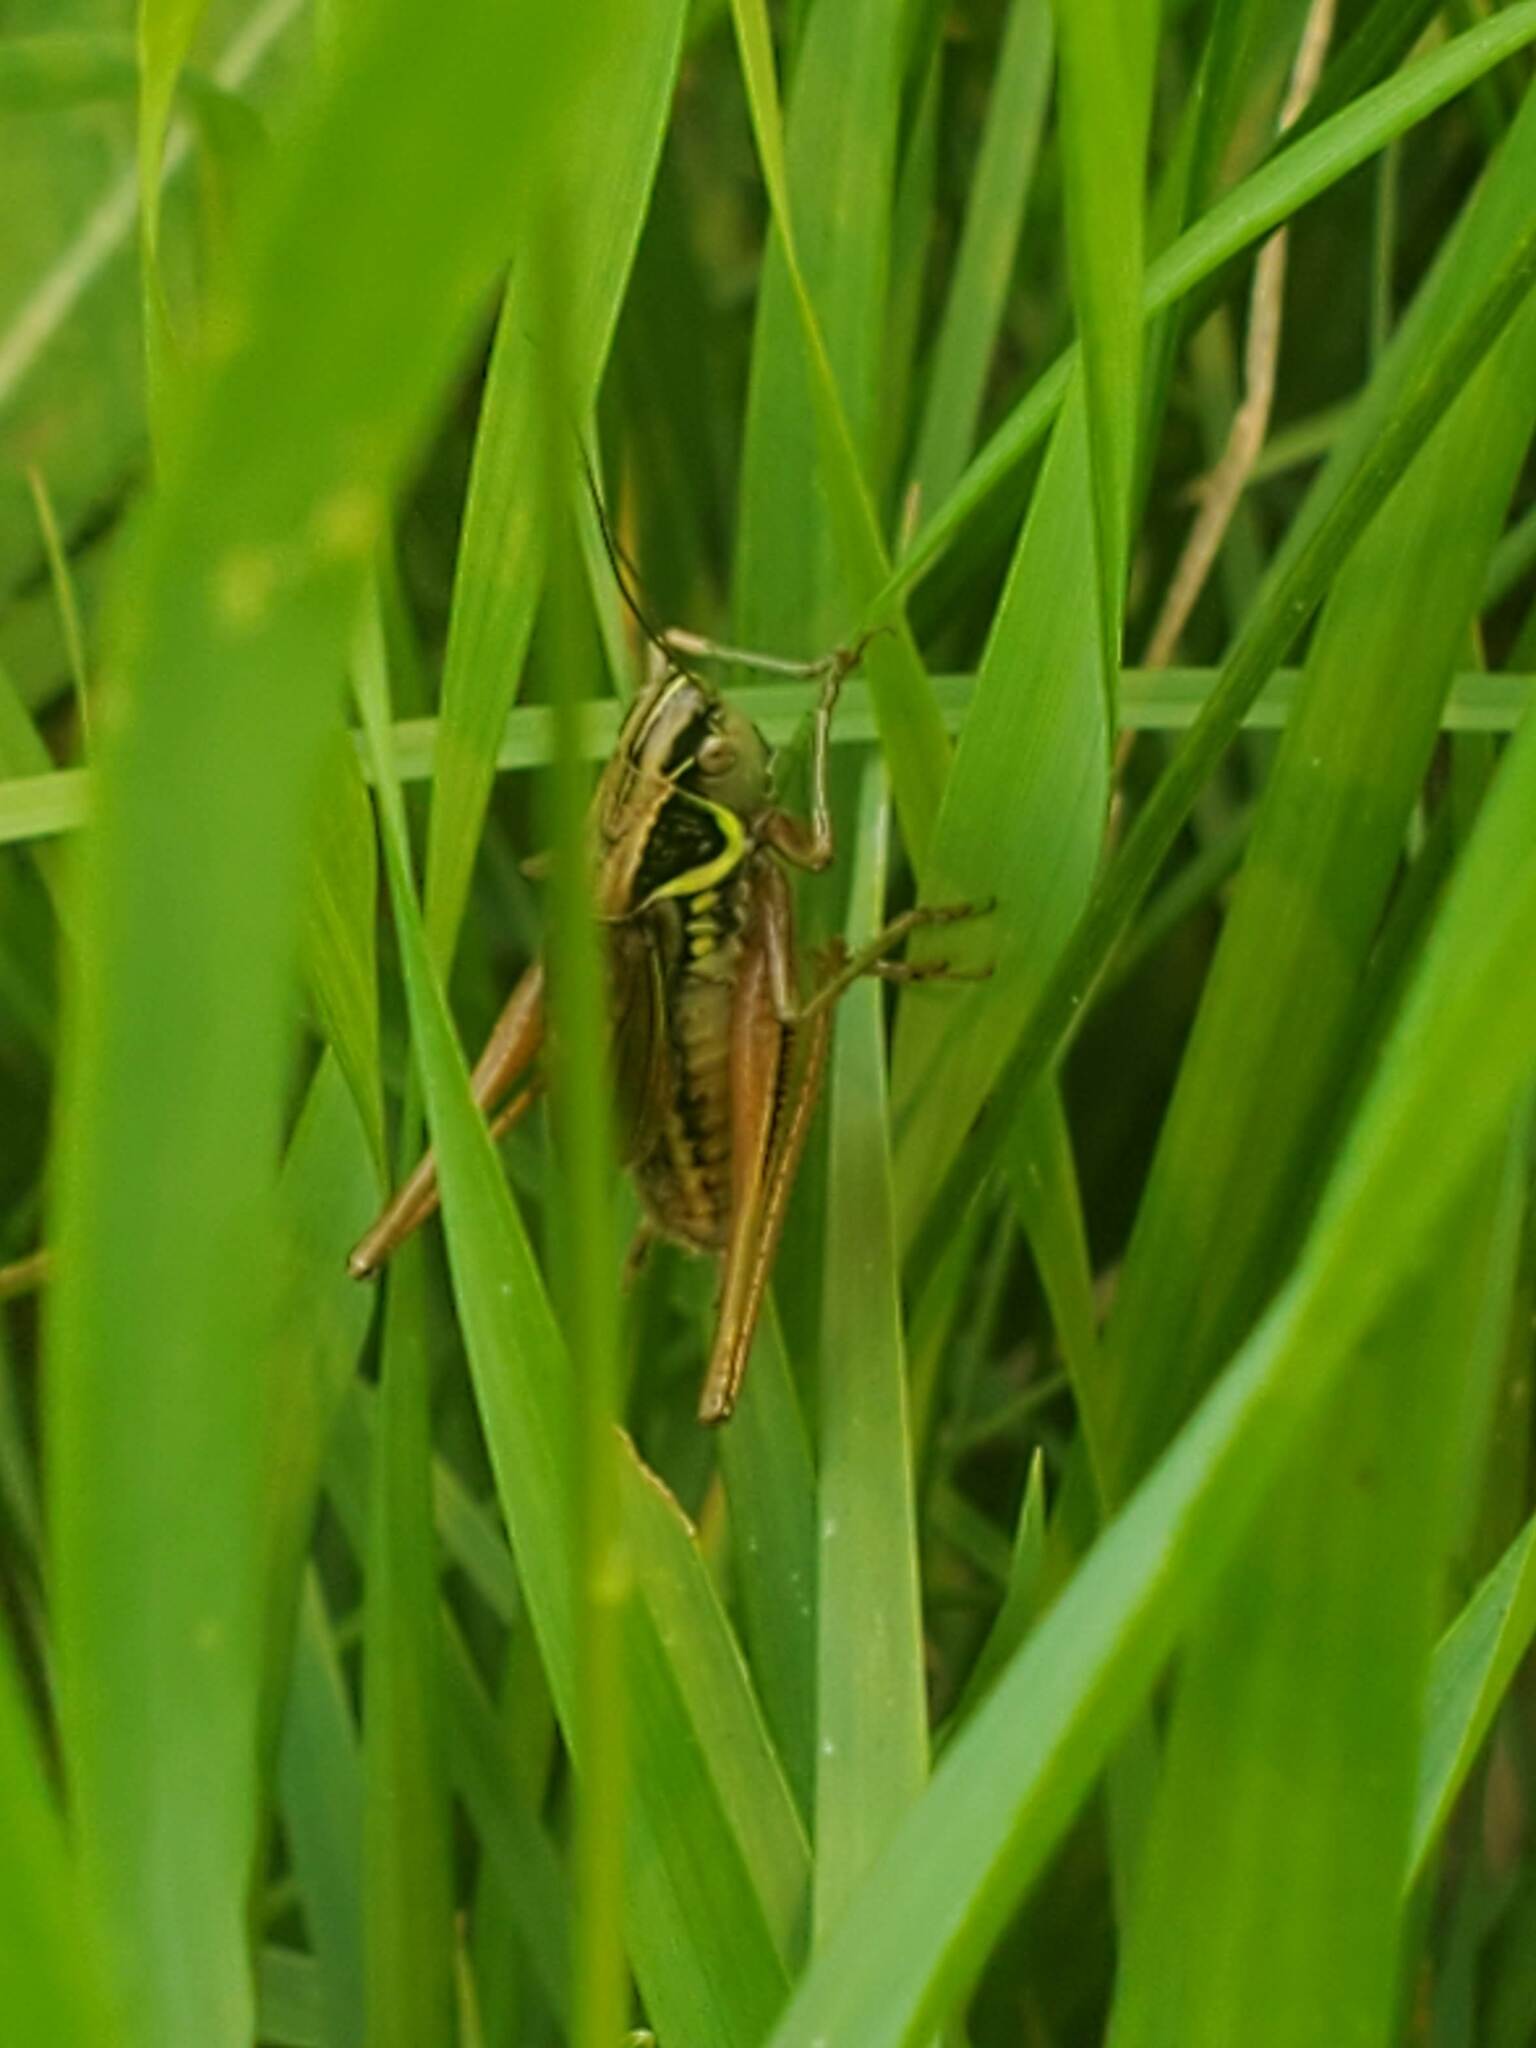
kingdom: Animalia
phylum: Arthropoda
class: Insecta
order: Orthoptera
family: Tettigoniidae
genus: Roeseliana
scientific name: Roeseliana roeselii
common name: Roesel's bush cricket
